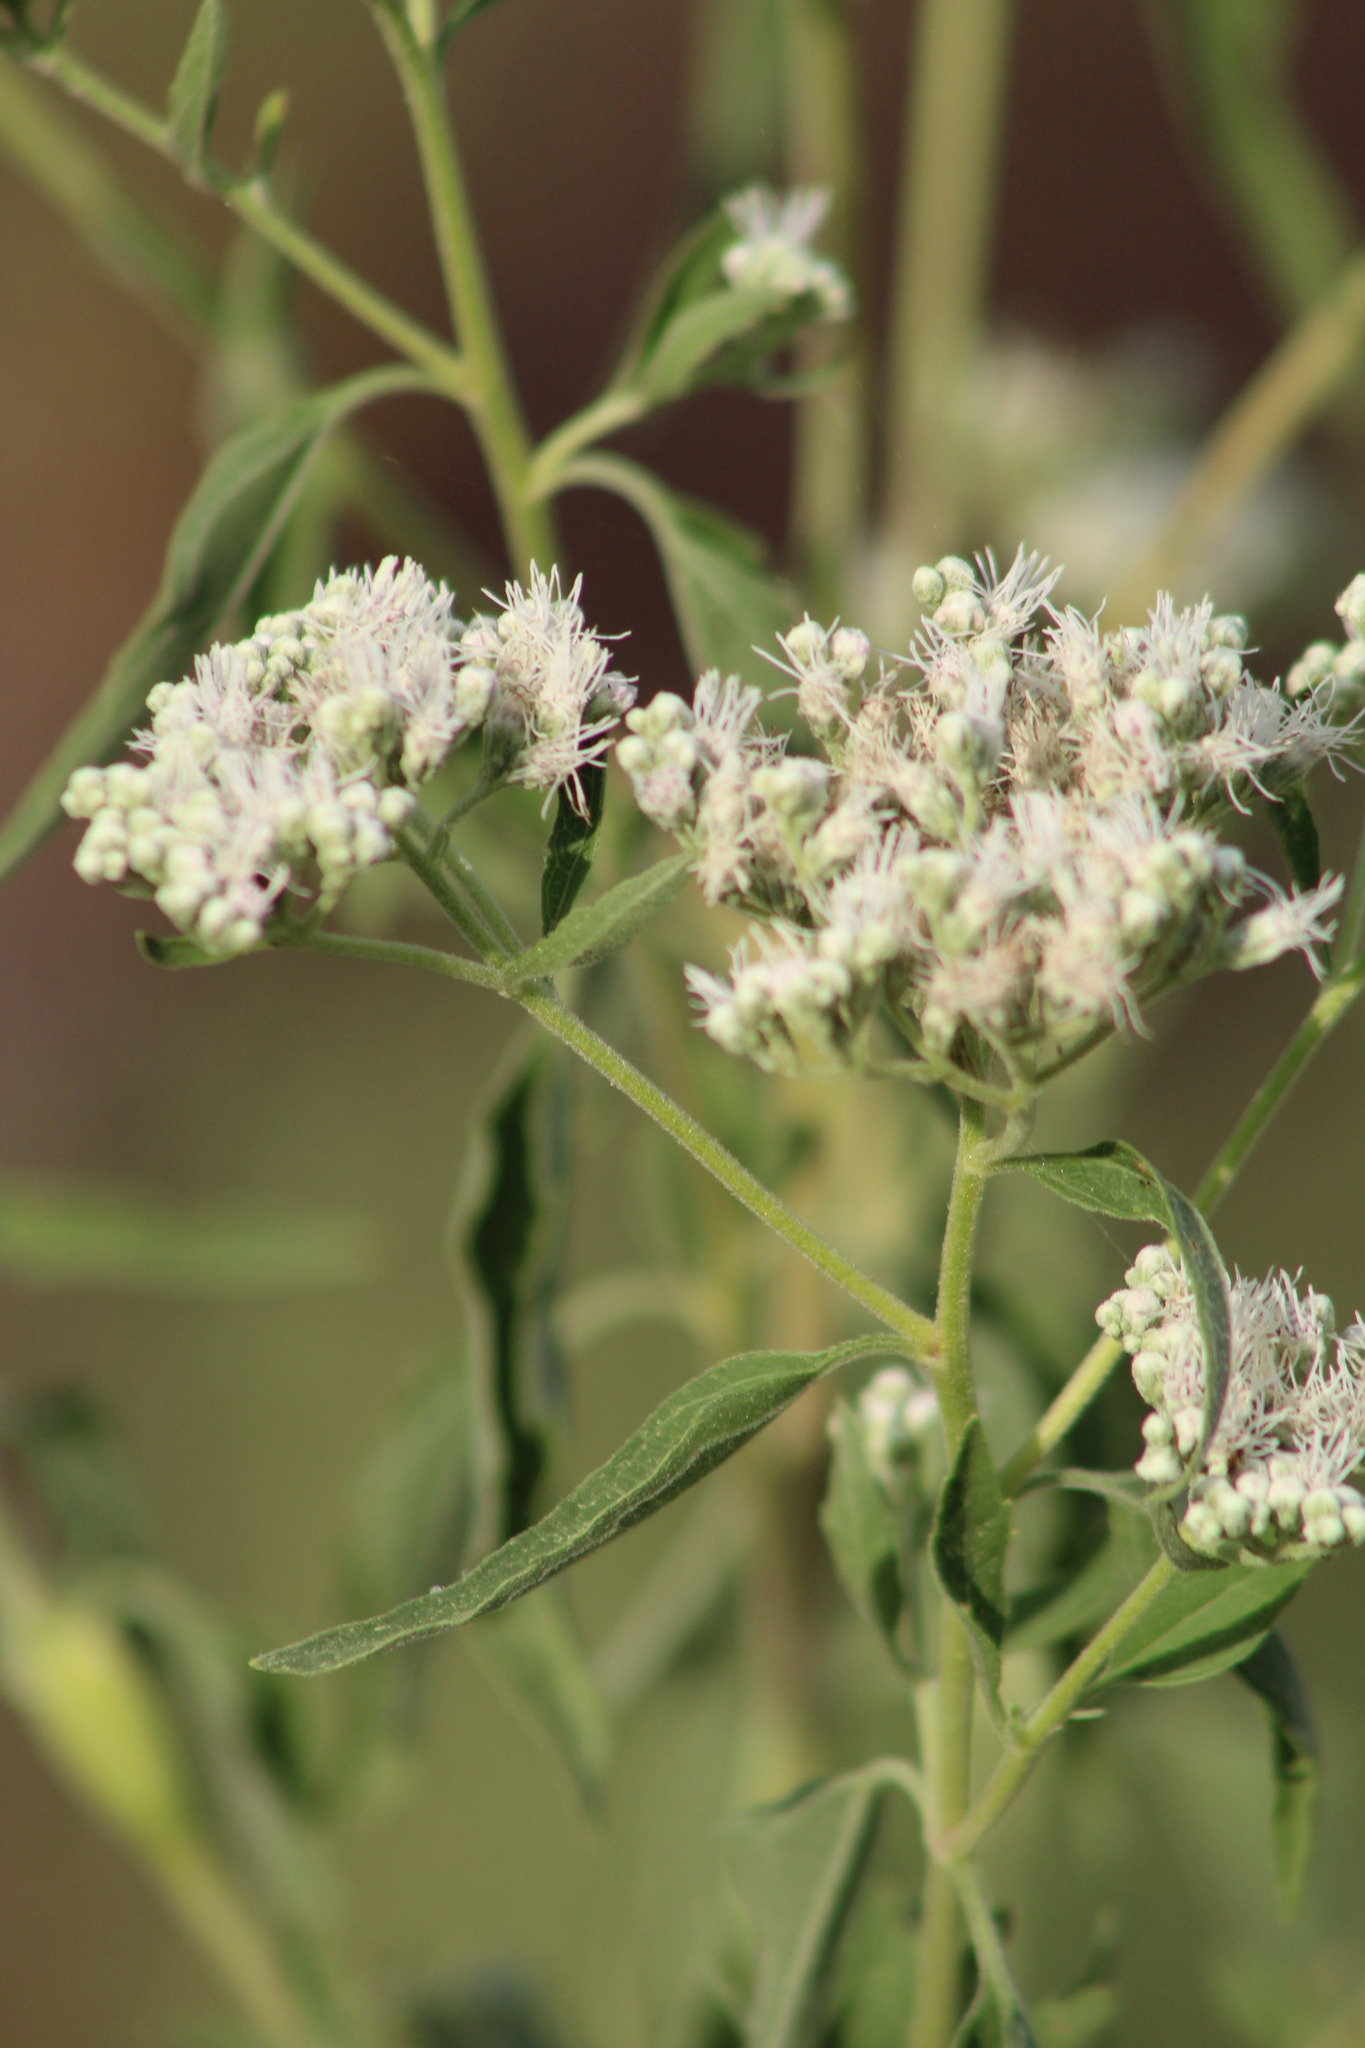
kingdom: Plantae
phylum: Tracheophyta
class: Magnoliopsida
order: Asterales
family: Asteraceae
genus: Eupatorium
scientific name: Eupatorium serotinum
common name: Late boneset
